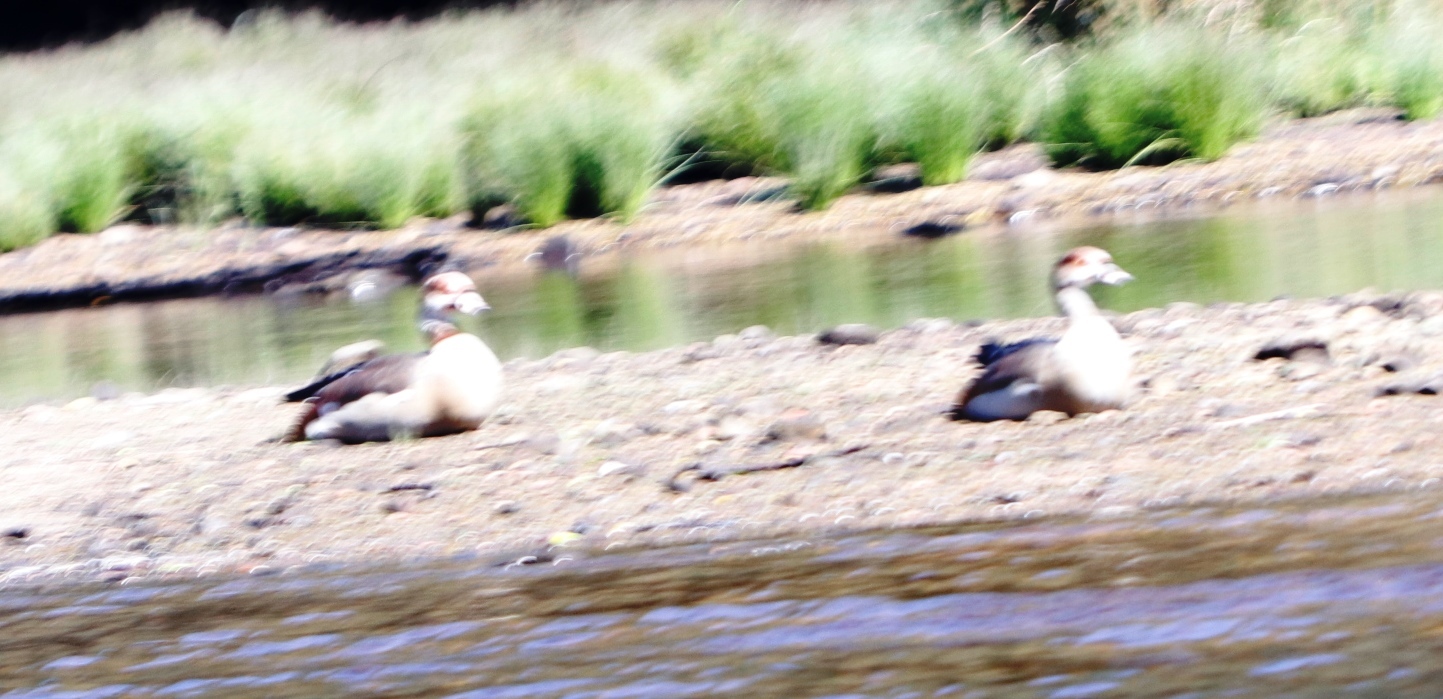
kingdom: Animalia
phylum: Chordata
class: Aves
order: Anseriformes
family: Anatidae
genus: Alopochen
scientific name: Alopochen aegyptiaca
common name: Egyptian goose
